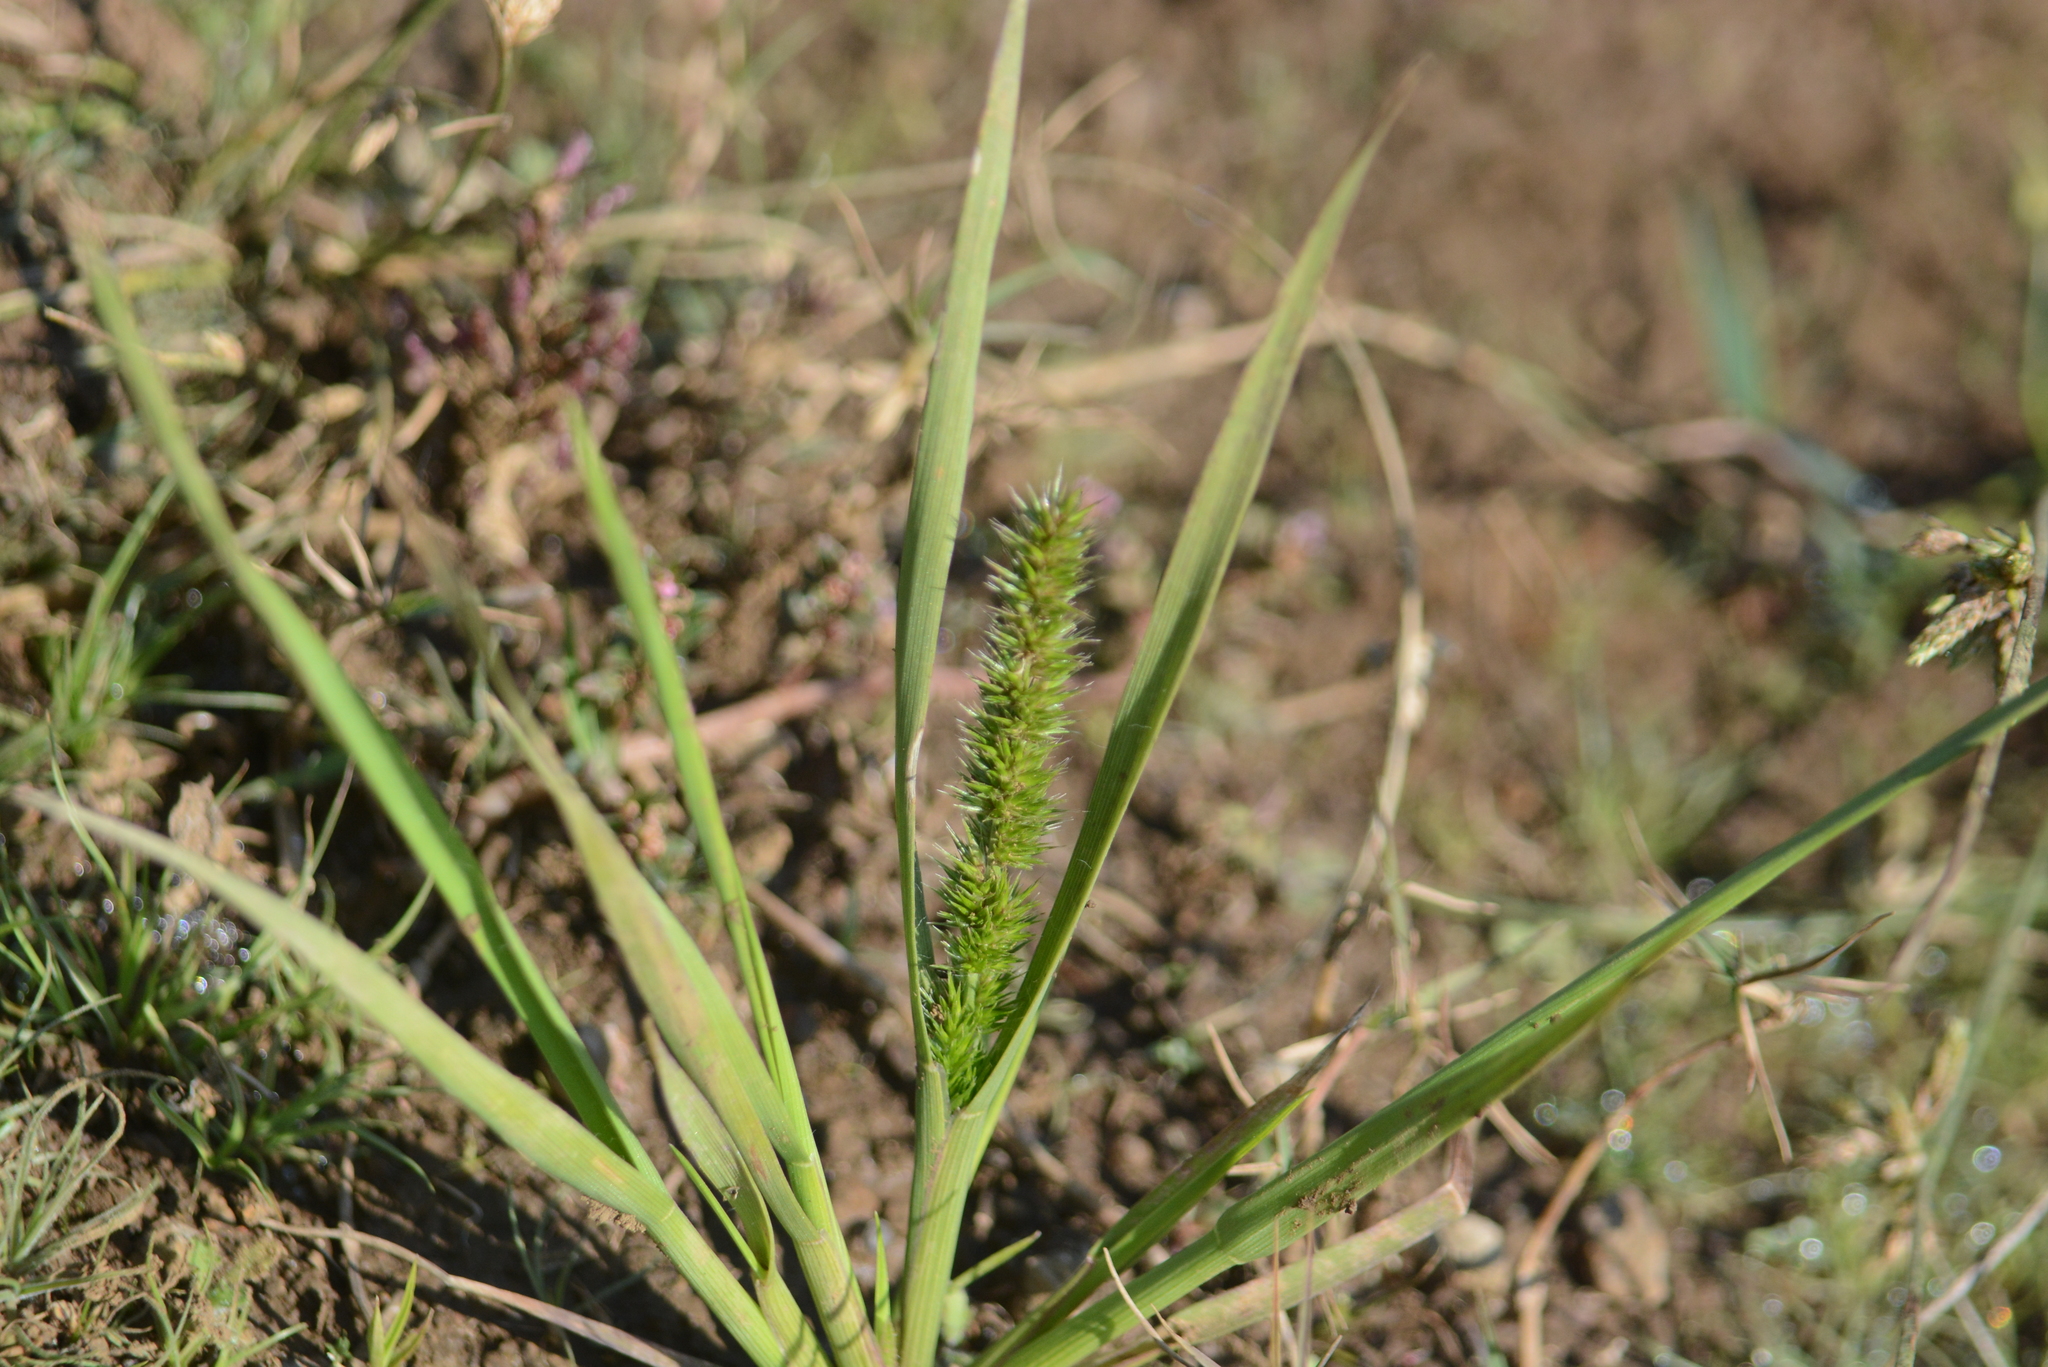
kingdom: Plantae
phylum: Tracheophyta
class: Liliopsida
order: Poales
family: Poaceae
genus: Elytrophorus
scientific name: Elytrophorus spicatus
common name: Spike grass
